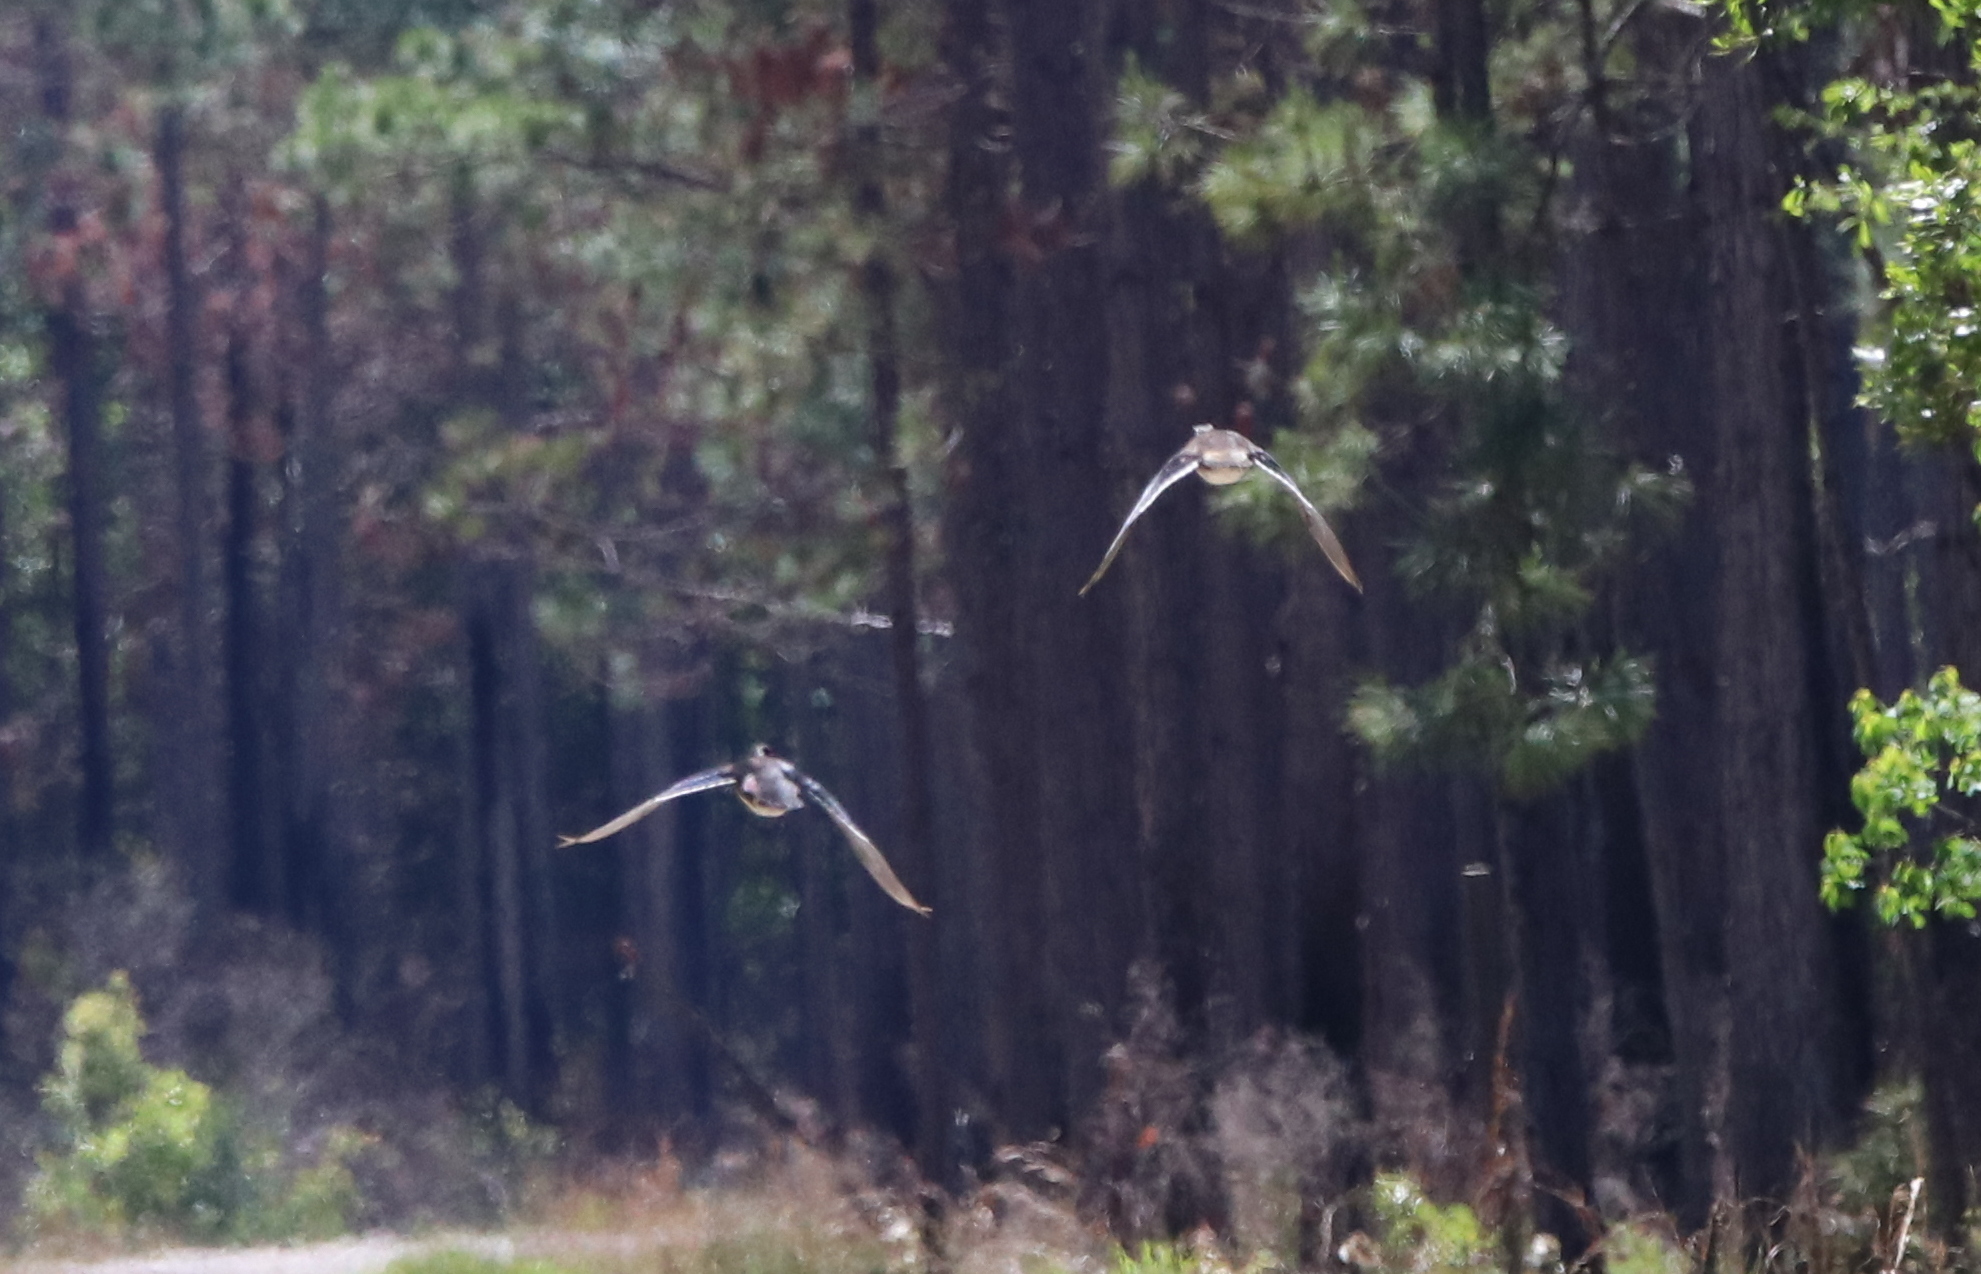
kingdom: Animalia
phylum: Chordata
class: Aves
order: Anseriformes
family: Anatidae
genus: Aix
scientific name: Aix sponsa
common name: Wood duck
